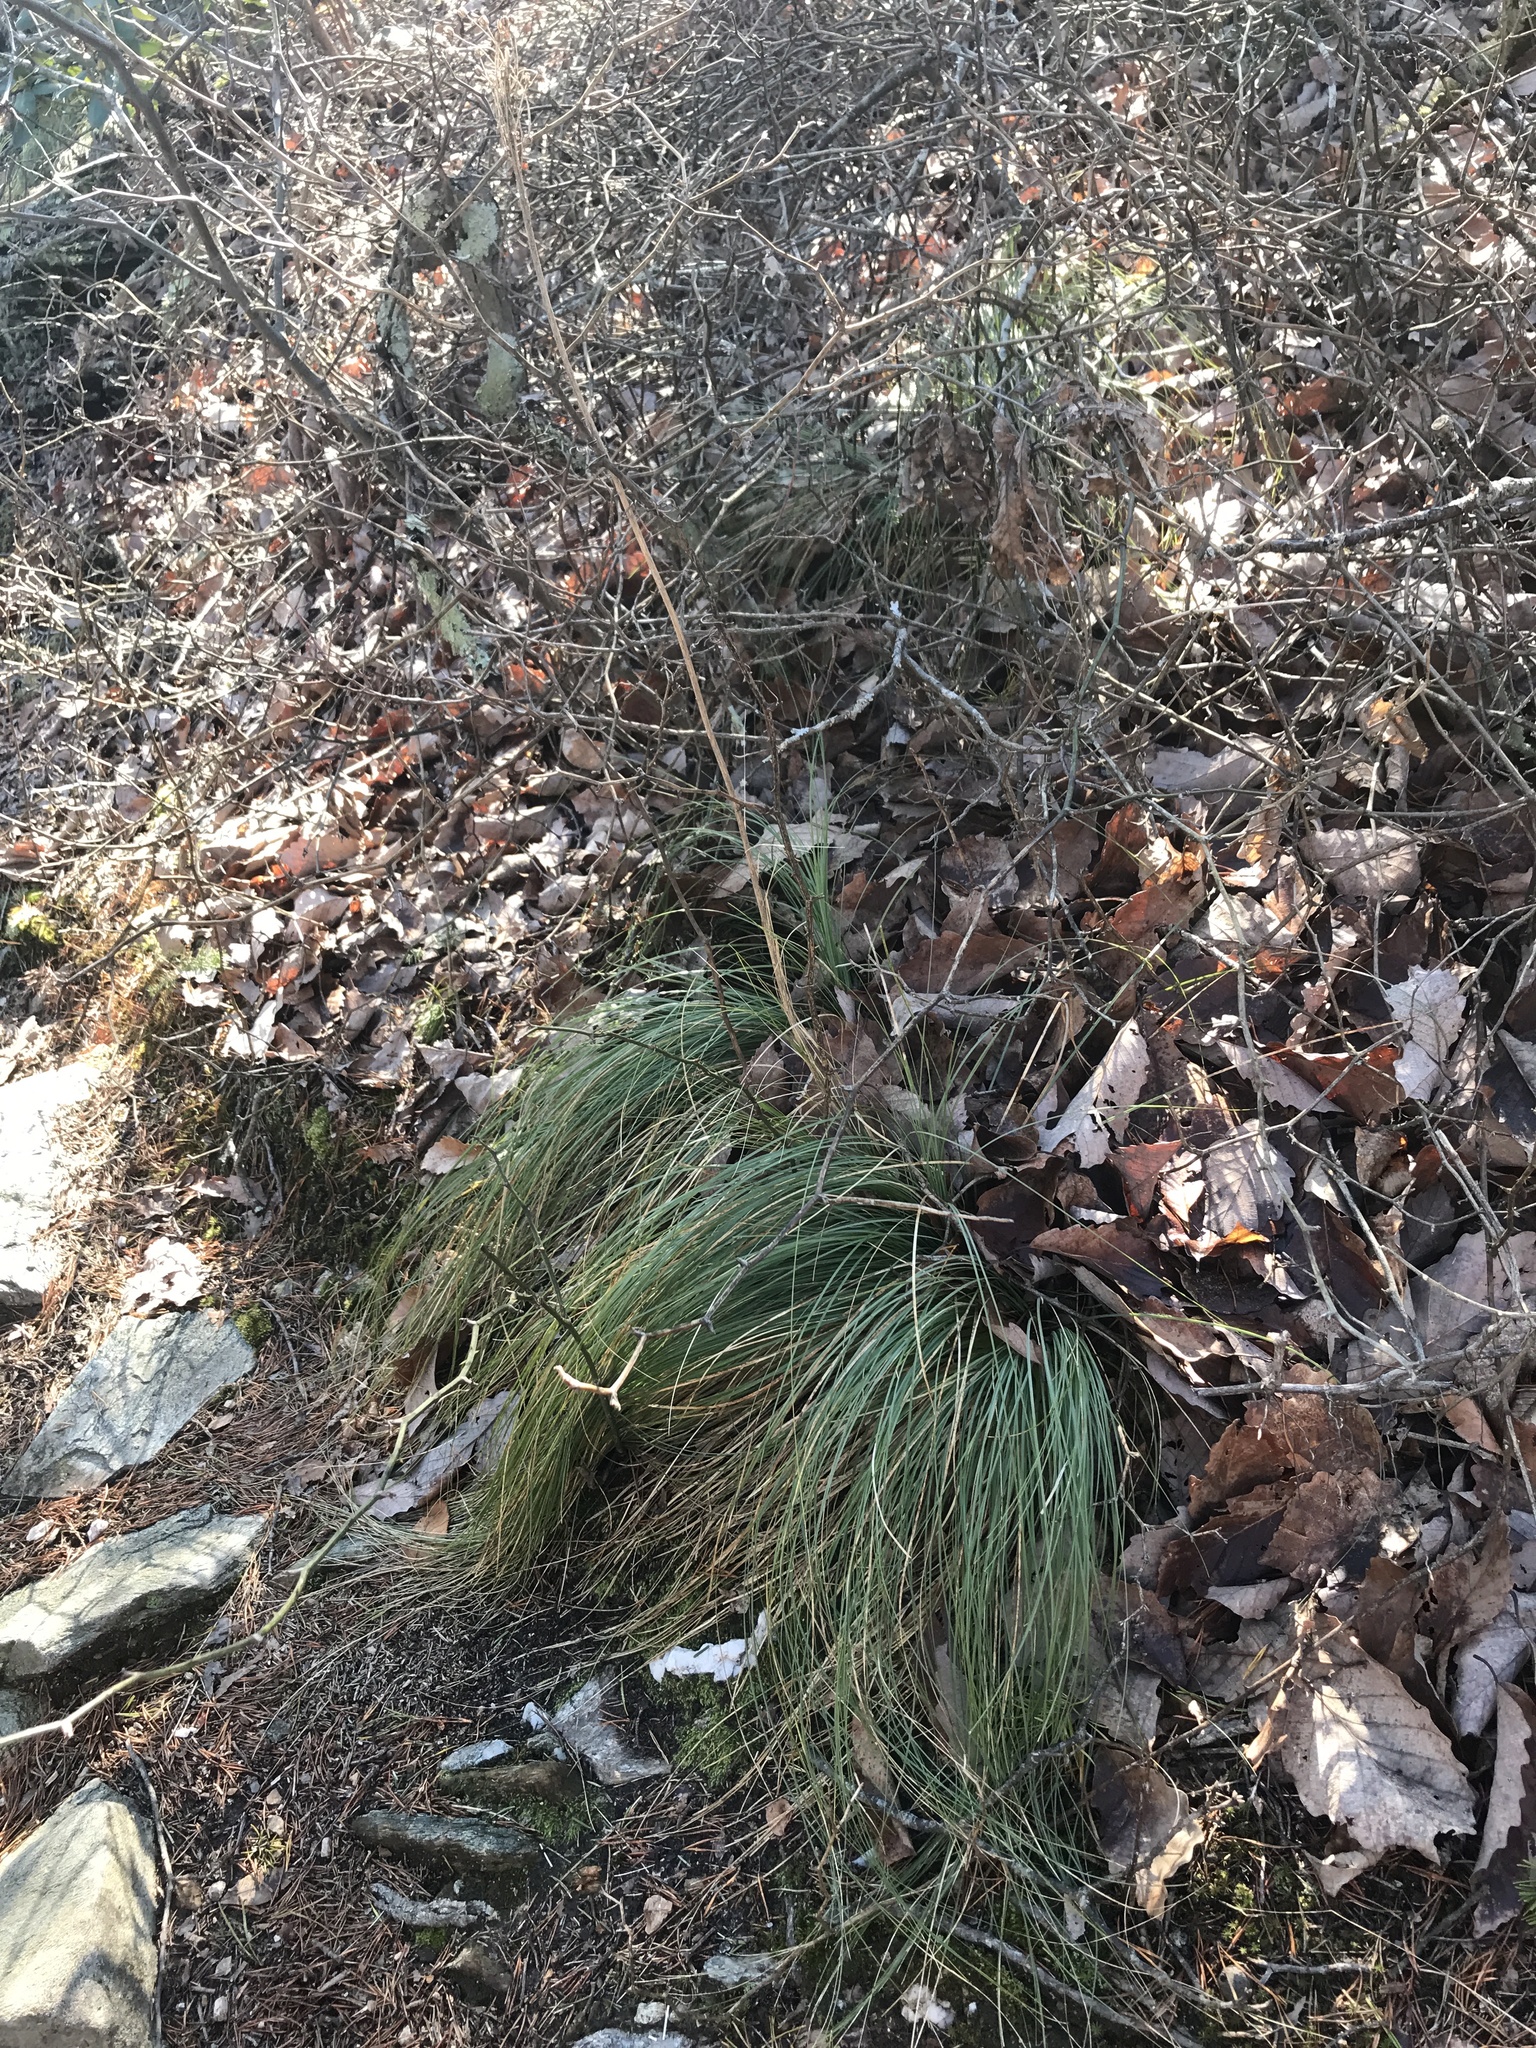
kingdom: Plantae
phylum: Tracheophyta
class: Liliopsida
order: Liliales
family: Melanthiaceae
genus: Xerophyllum
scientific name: Xerophyllum asphodeloides
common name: Mountain-asphodel
